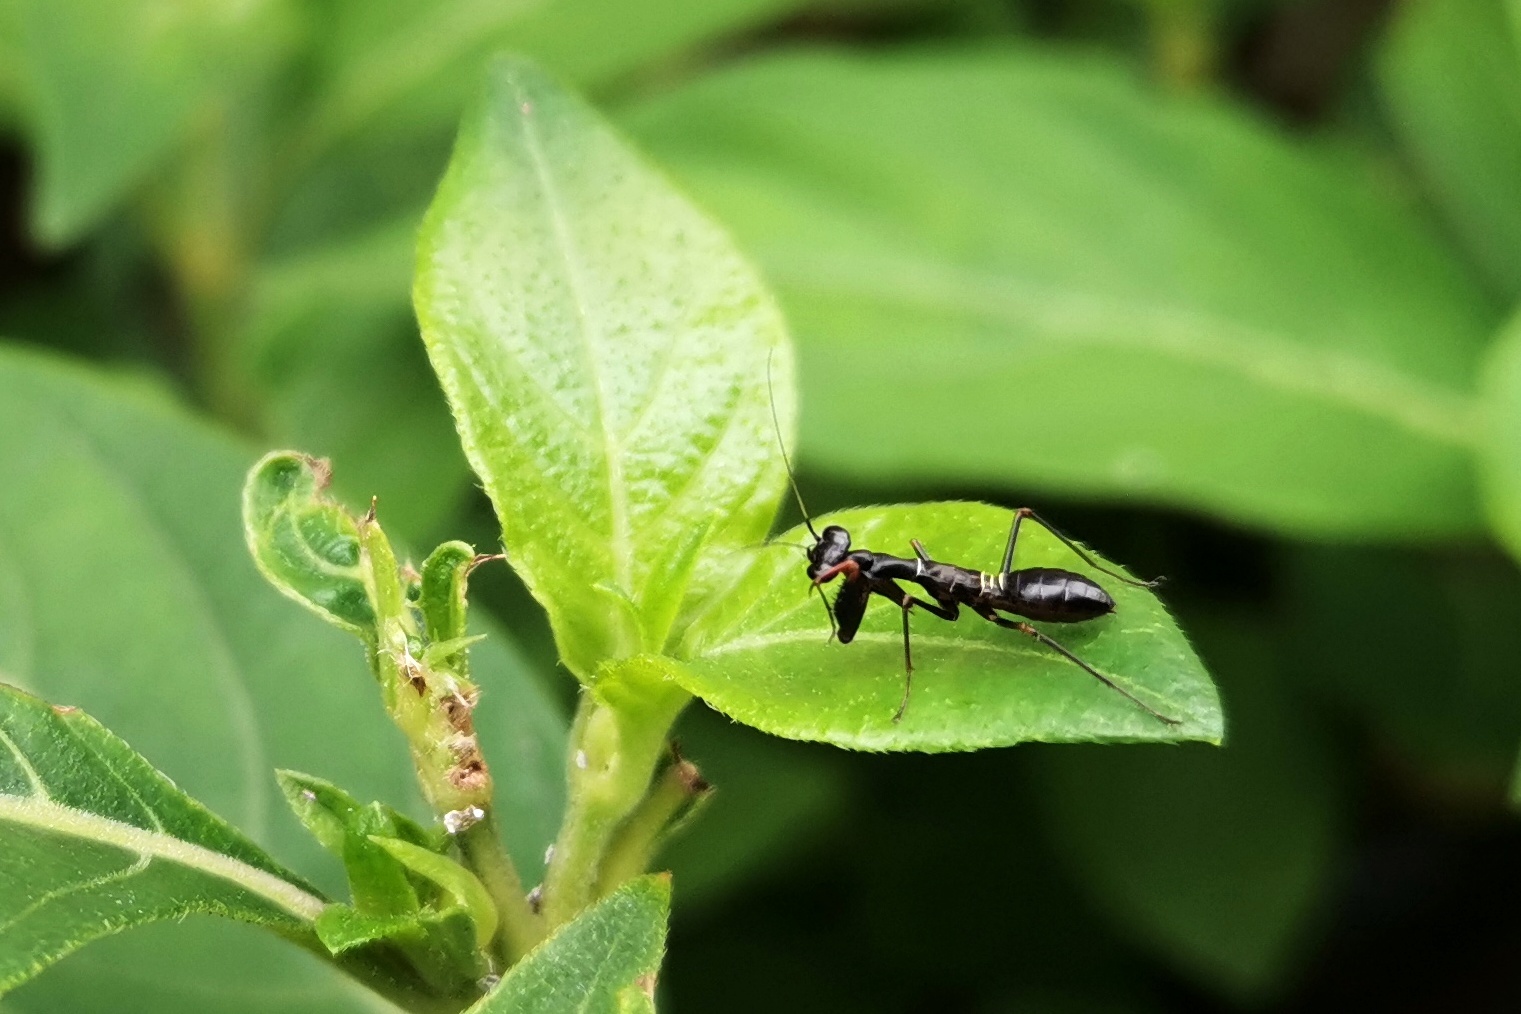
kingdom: Animalia
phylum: Arthropoda
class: Insecta
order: Mantodea
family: Hymenopodidae
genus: Odontomantis
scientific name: Odontomantis planiceps
